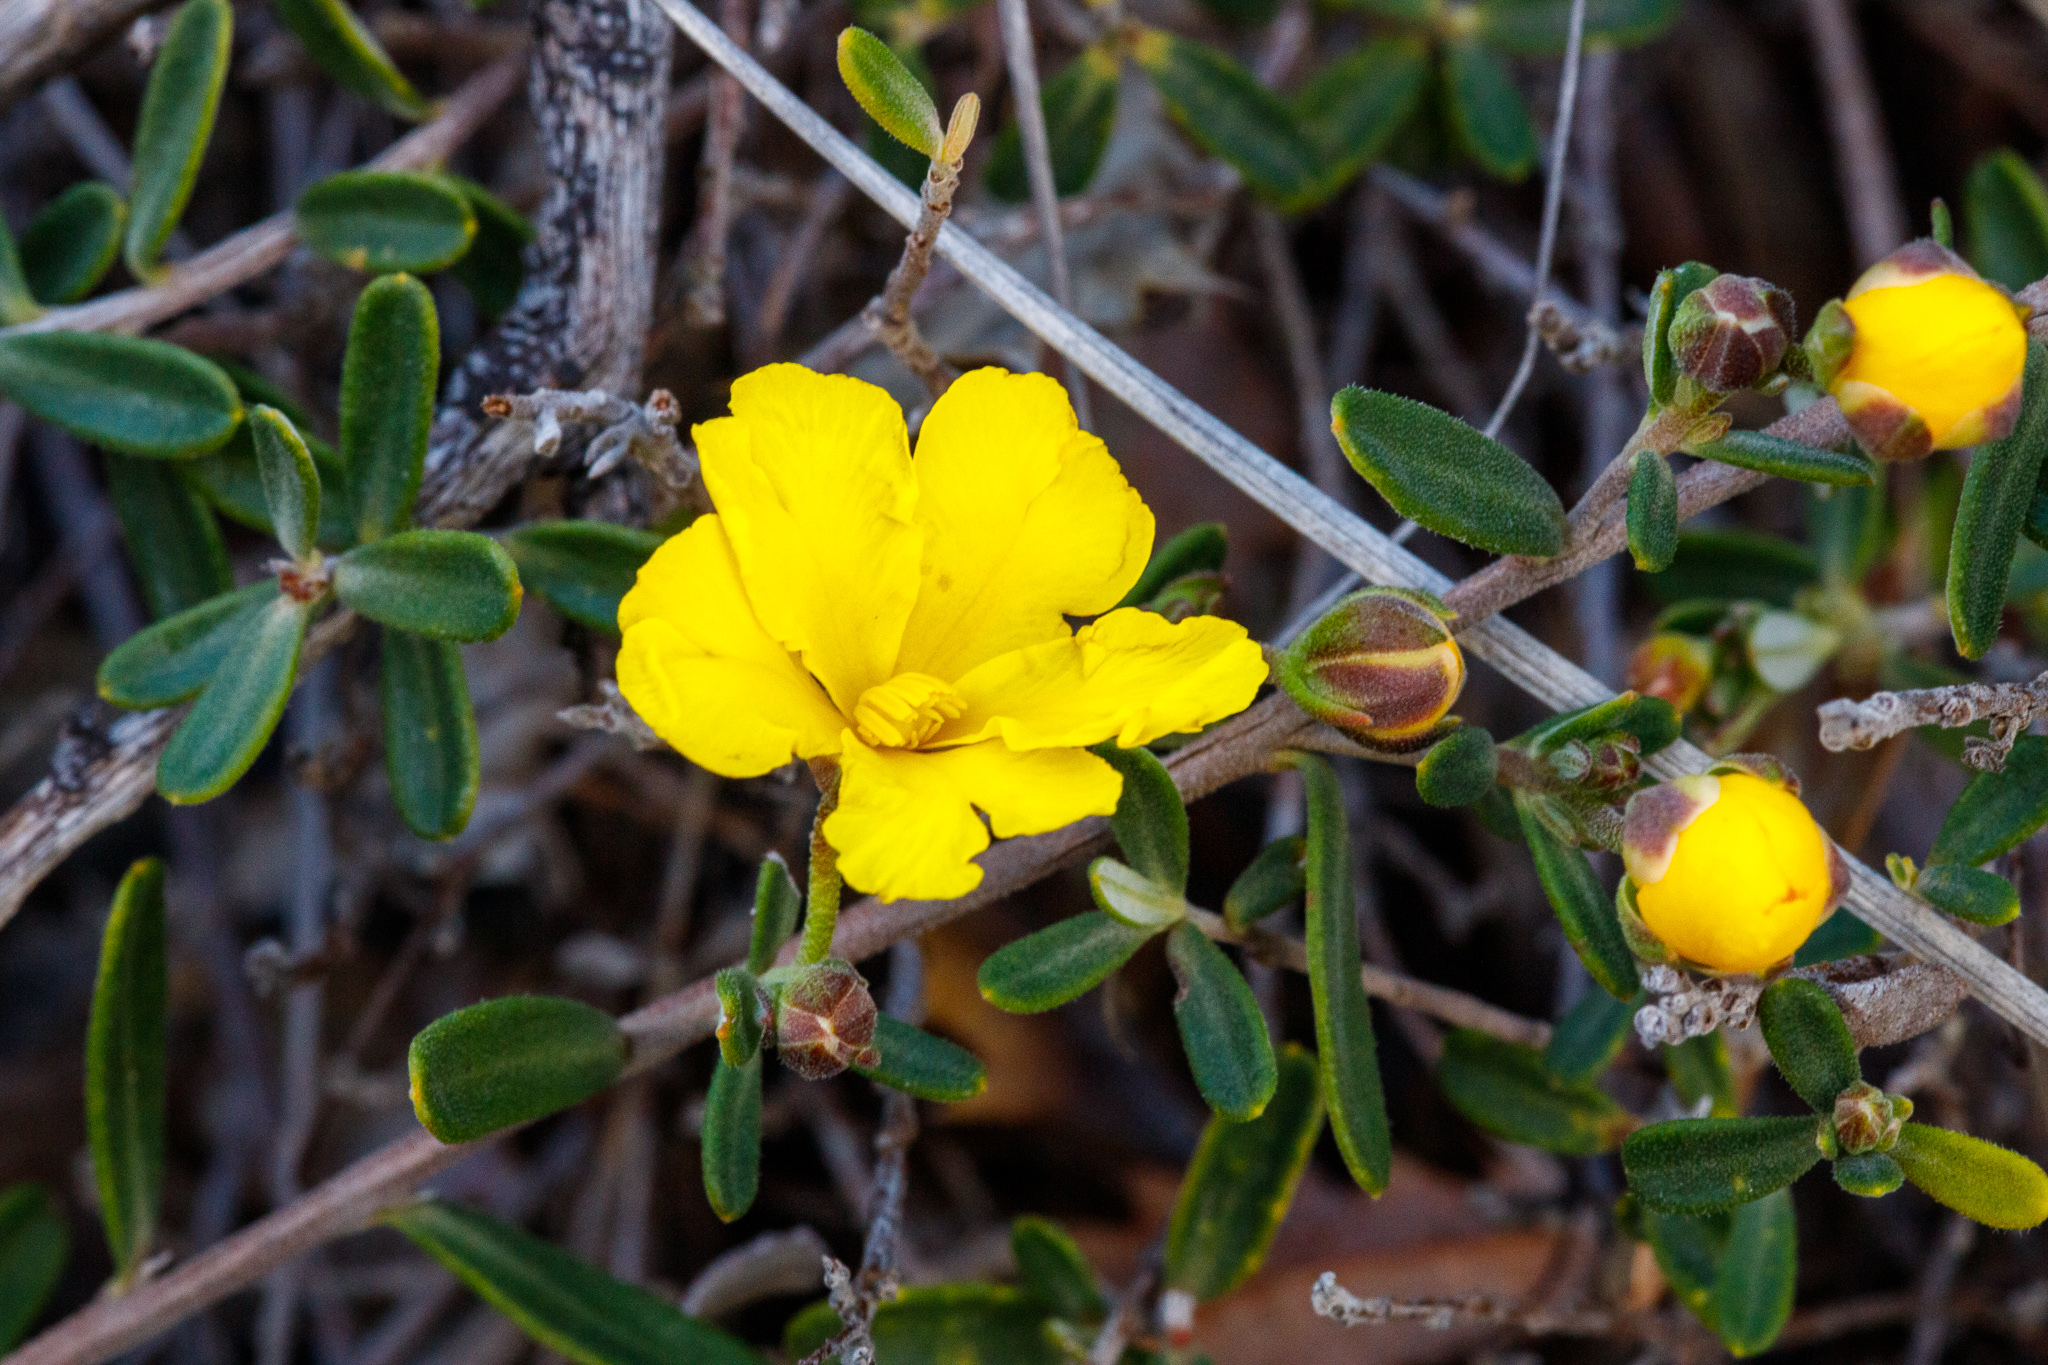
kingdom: Plantae
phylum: Tracheophyta
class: Magnoliopsida
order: Dilleniales
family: Dilleniaceae
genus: Hibbertia
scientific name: Hibbertia hypericoides
